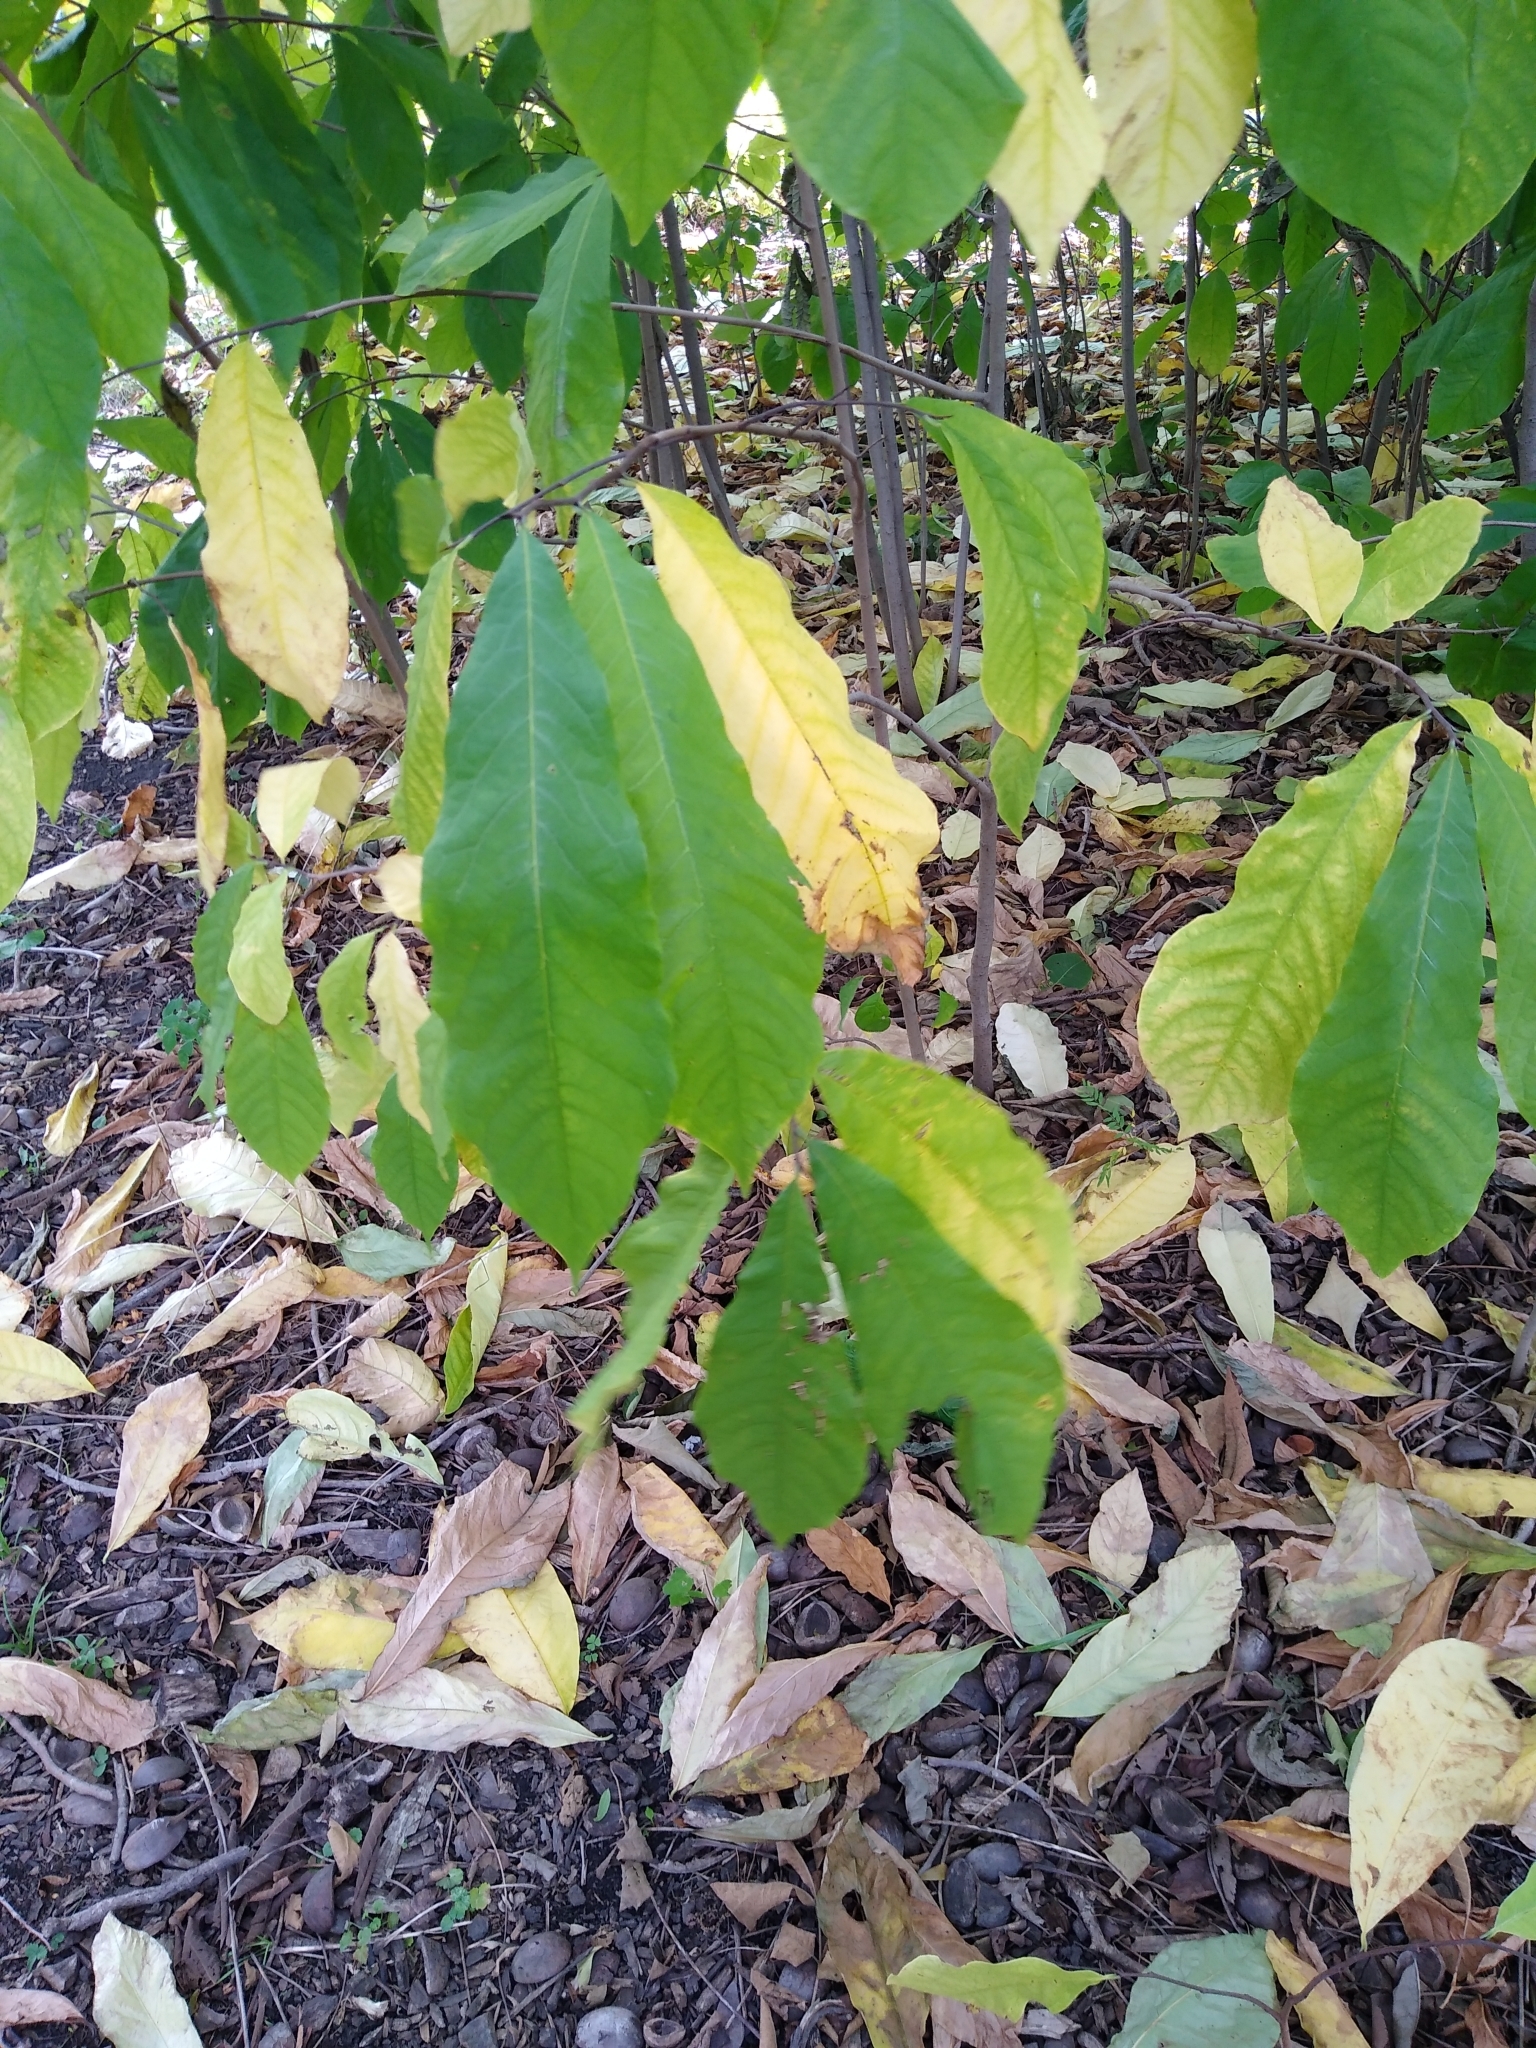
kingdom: Plantae
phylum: Tracheophyta
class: Magnoliopsida
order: Magnoliales
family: Annonaceae
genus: Asimina
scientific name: Asimina triloba
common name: Dog-banana
